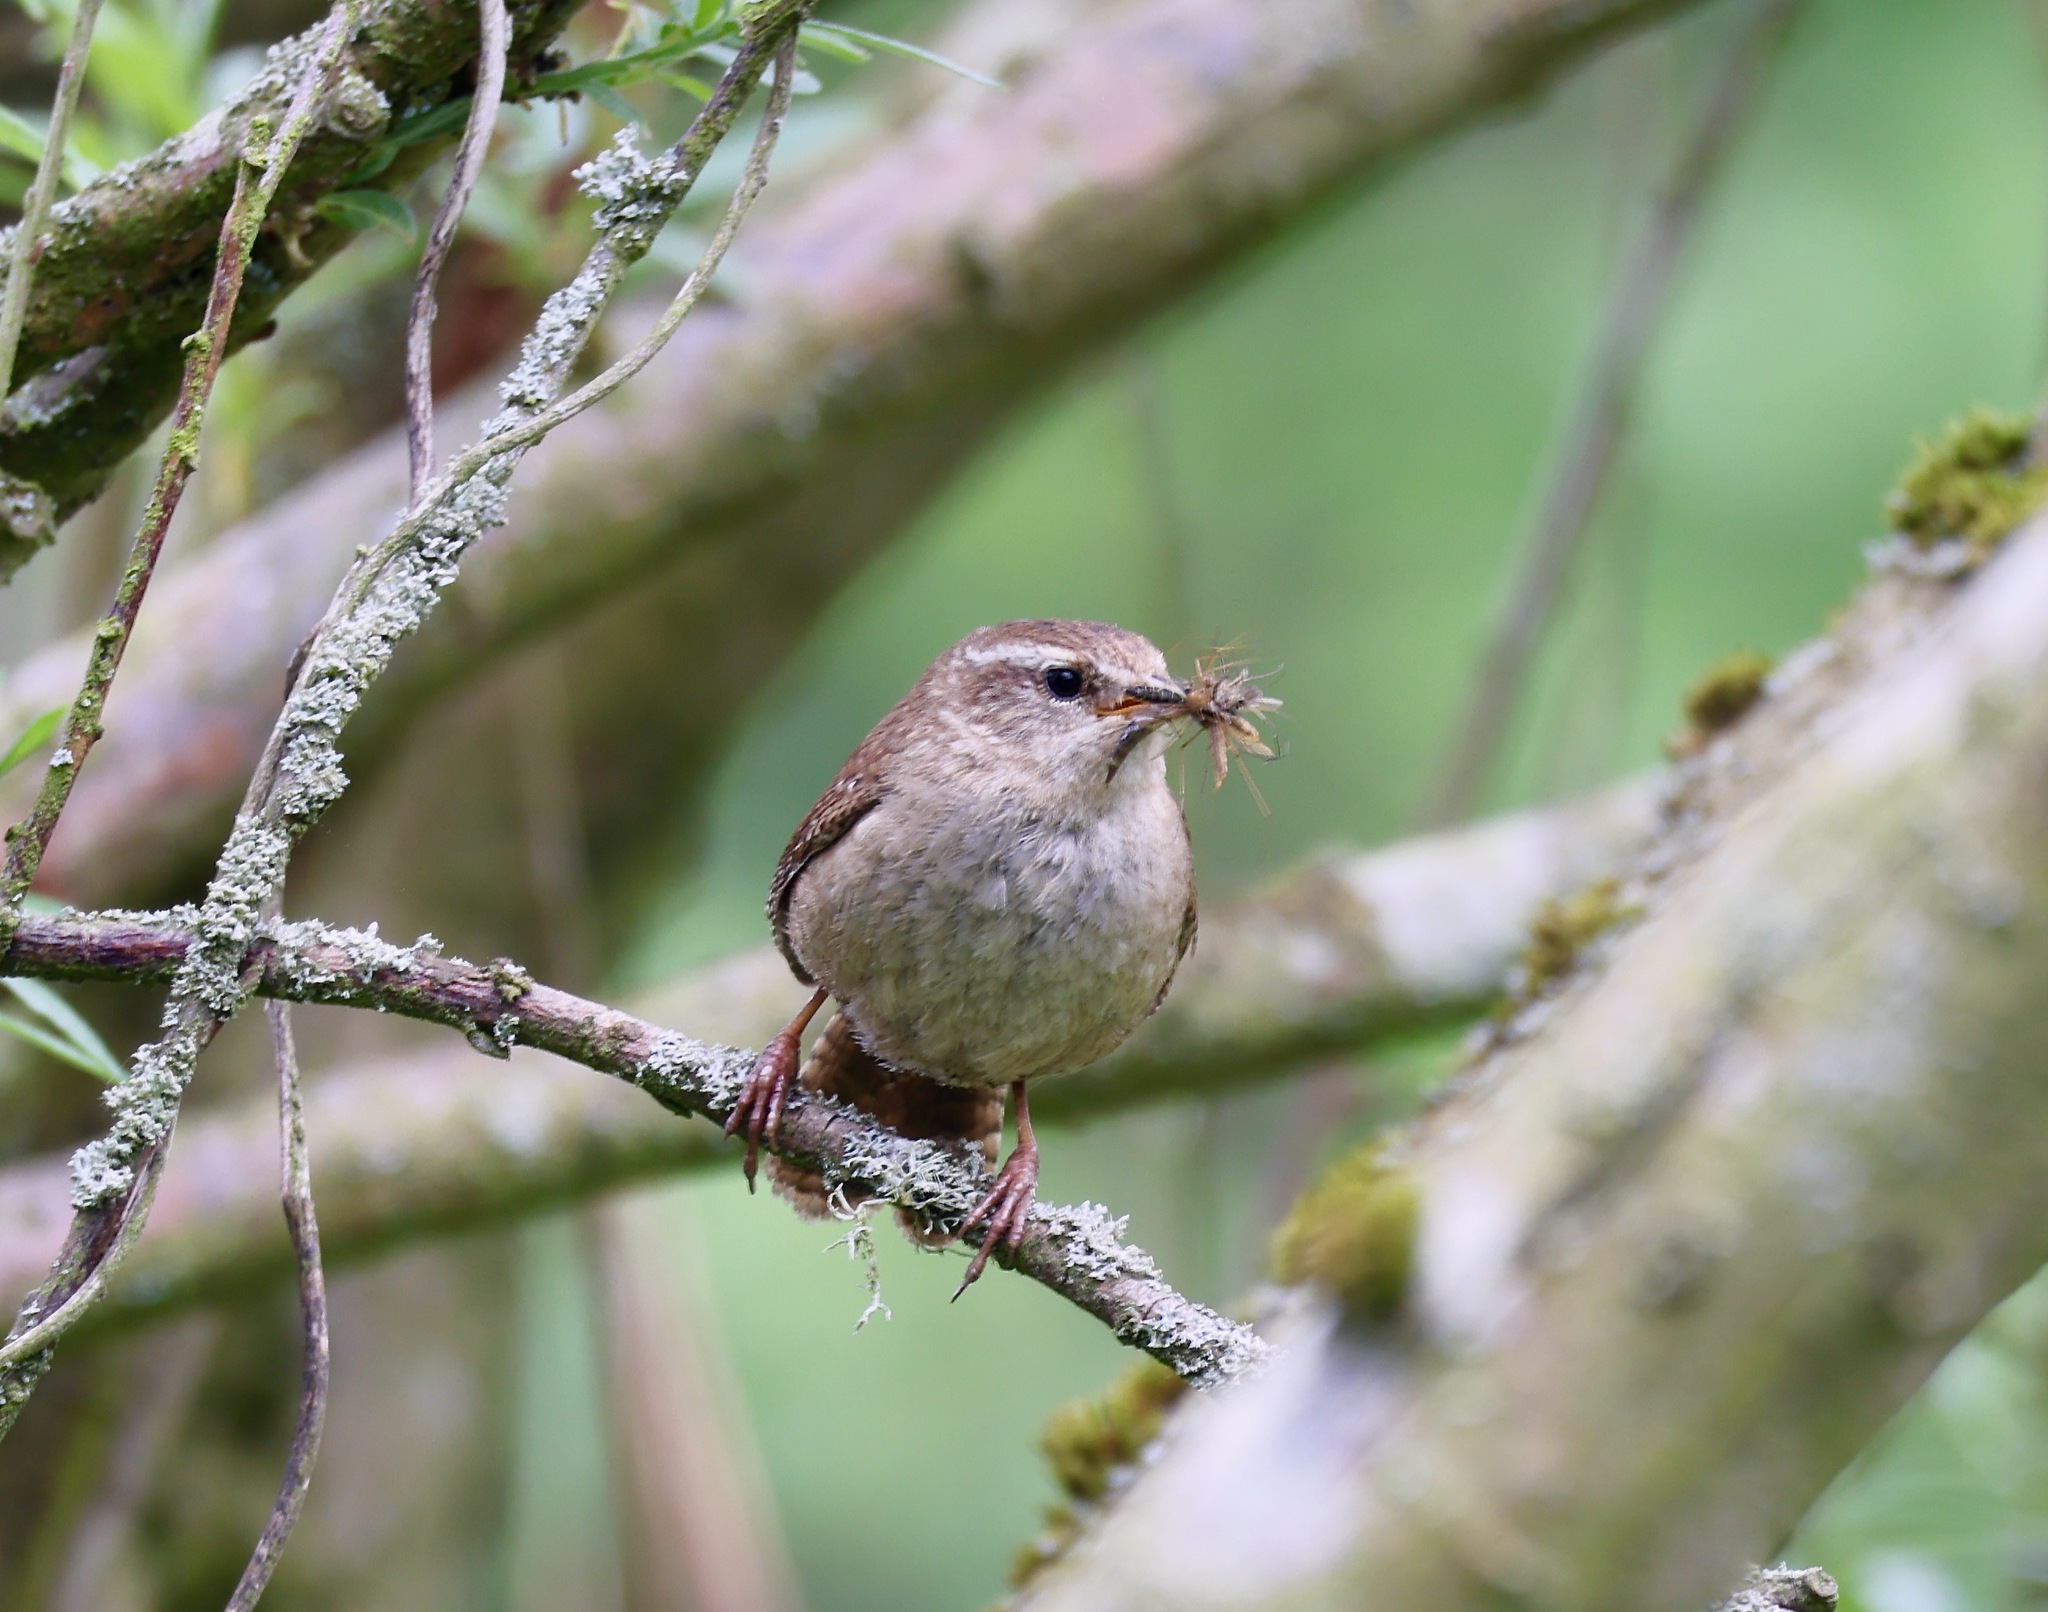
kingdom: Animalia
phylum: Chordata
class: Aves
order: Passeriformes
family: Troglodytidae
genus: Troglodytes
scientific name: Troglodytes troglodytes
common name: Eurasian wren
